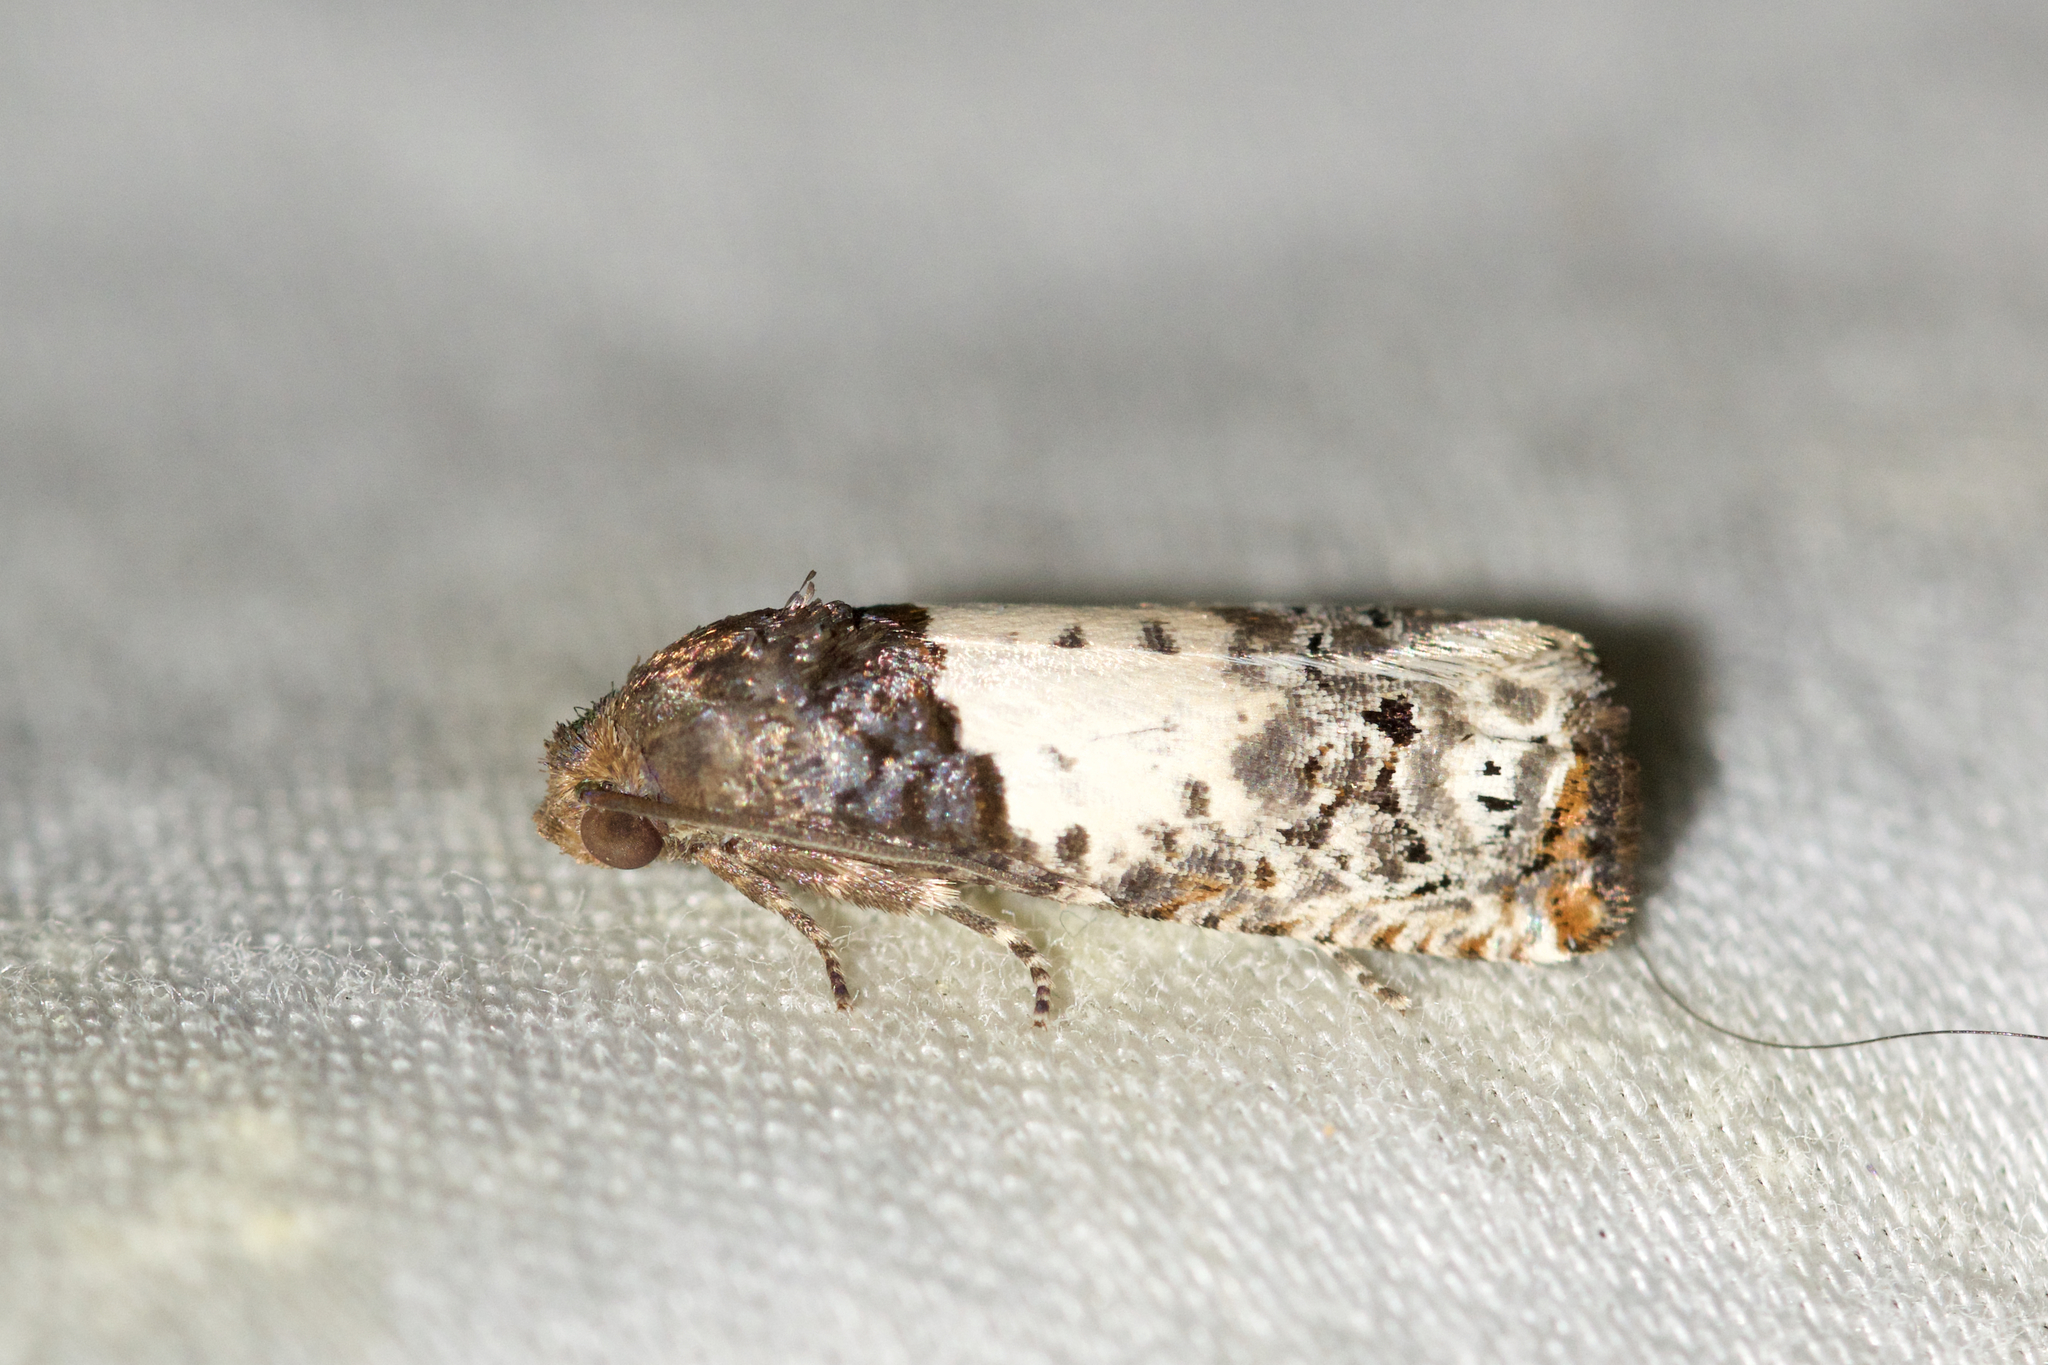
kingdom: Animalia
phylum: Arthropoda
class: Insecta
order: Lepidoptera
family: Tortricidae
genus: Epiblema
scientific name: Epiblema scudderiana
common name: Goldenrod gall moth
